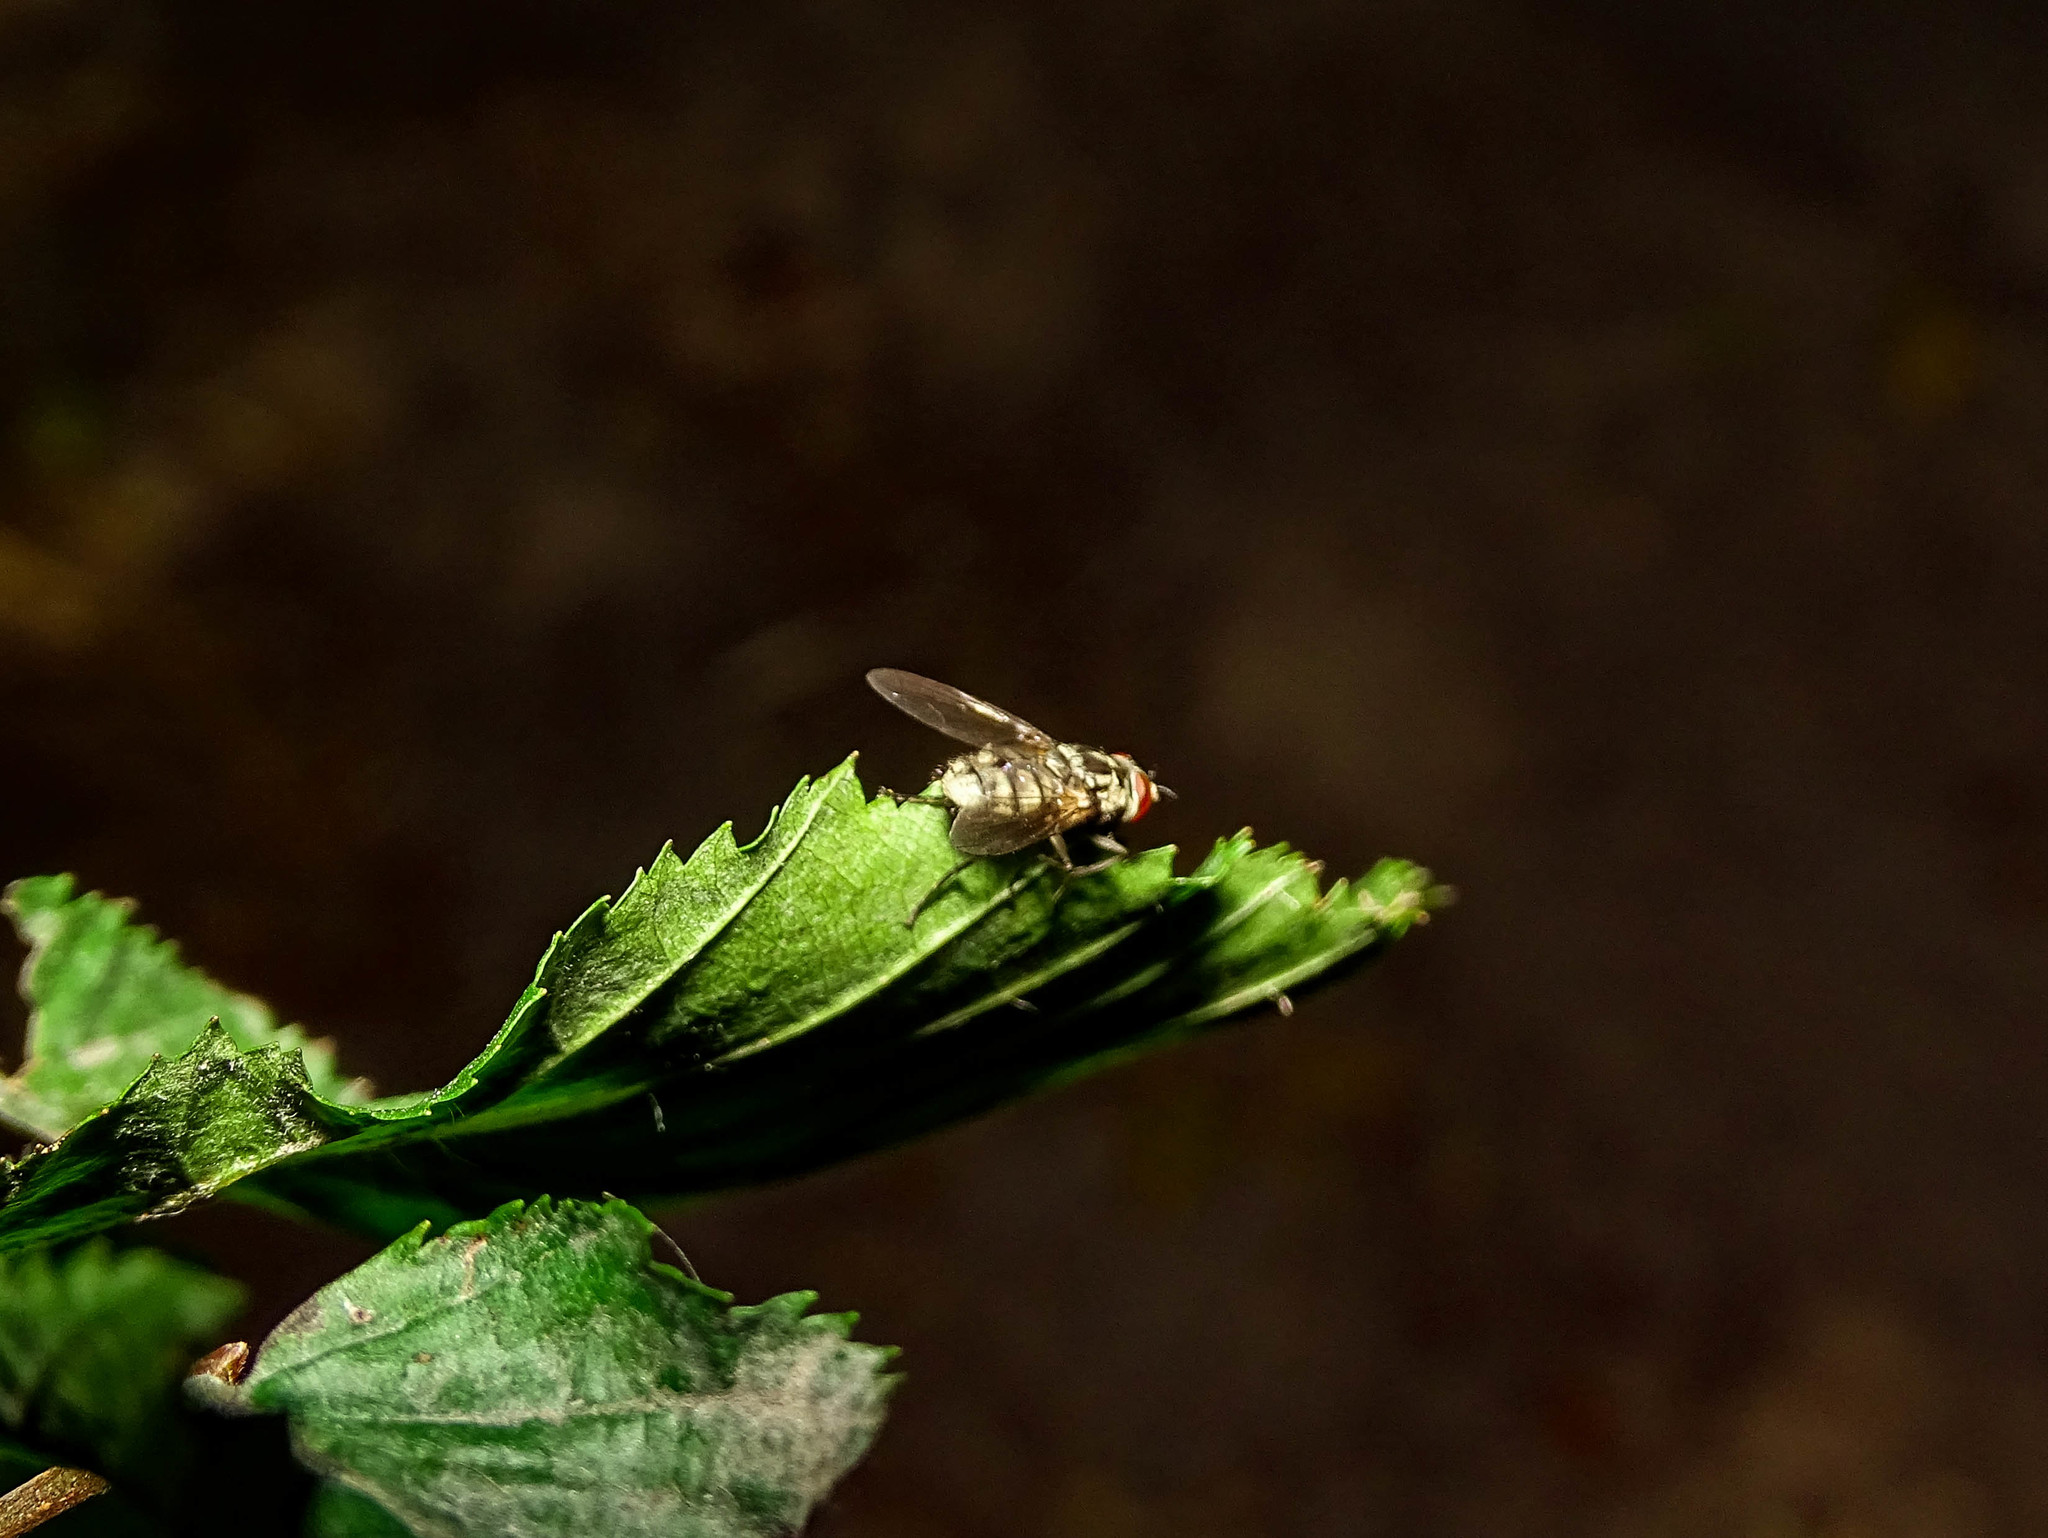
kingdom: Animalia
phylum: Arthropoda
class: Insecta
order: Diptera
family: Muscidae
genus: Stomoxys
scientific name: Stomoxys calcitrans
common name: Stable fly
